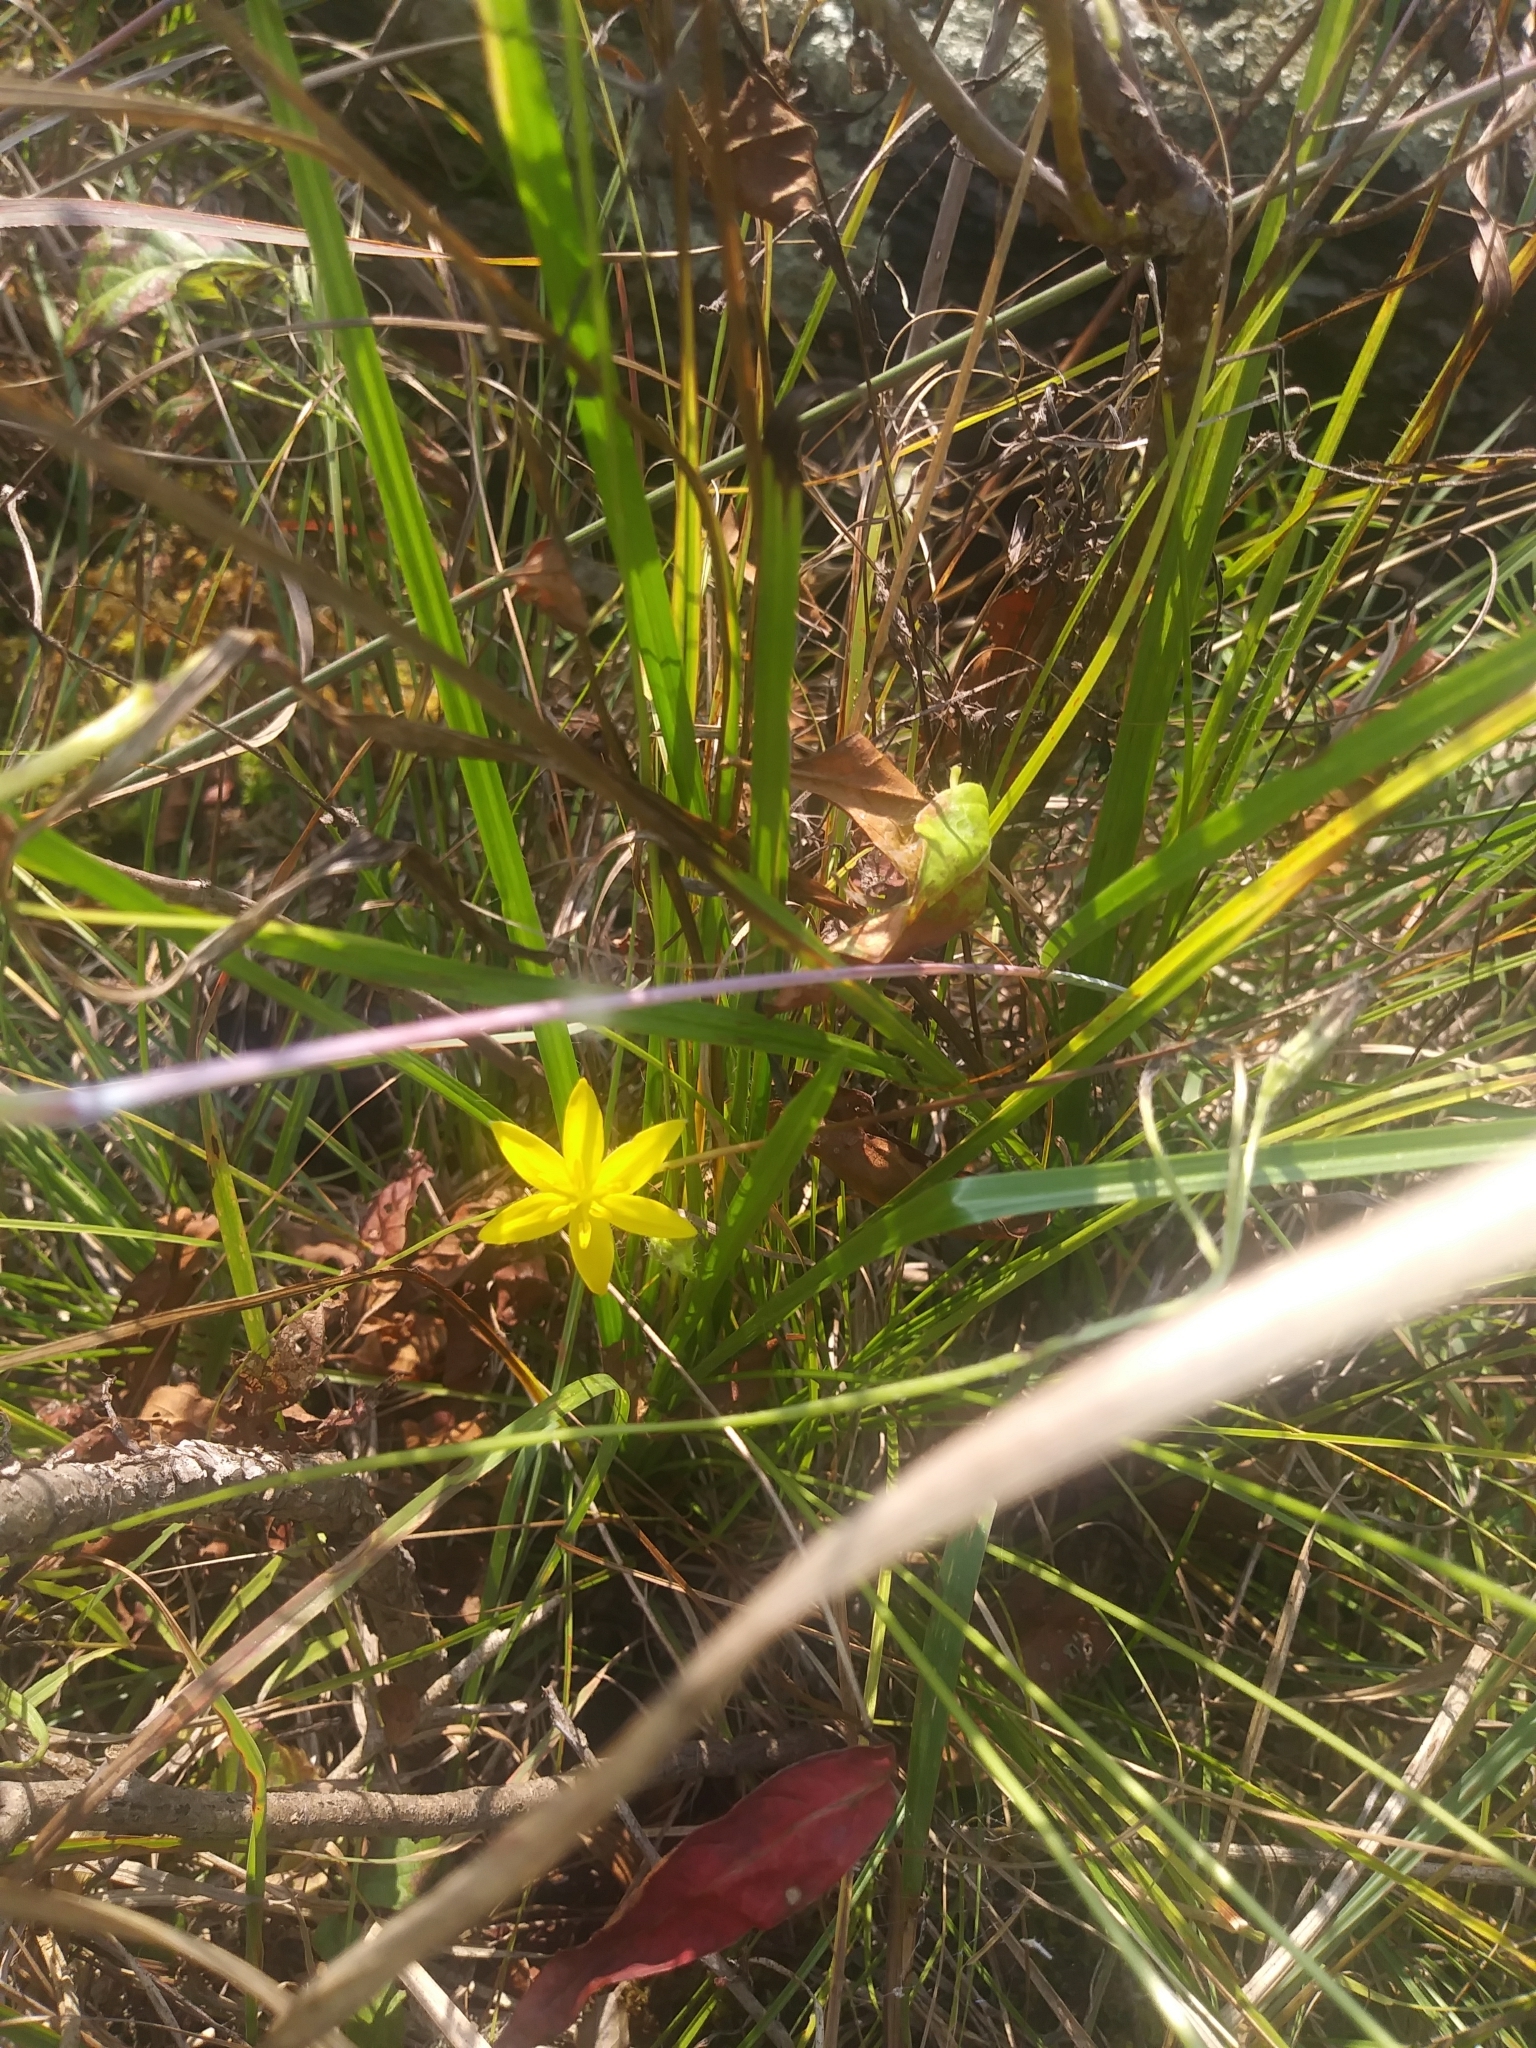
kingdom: Plantae
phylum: Tracheophyta
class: Liliopsida
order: Asparagales
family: Hypoxidaceae
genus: Hypoxis
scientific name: Hypoxis hirsuta
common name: Common goldstar
